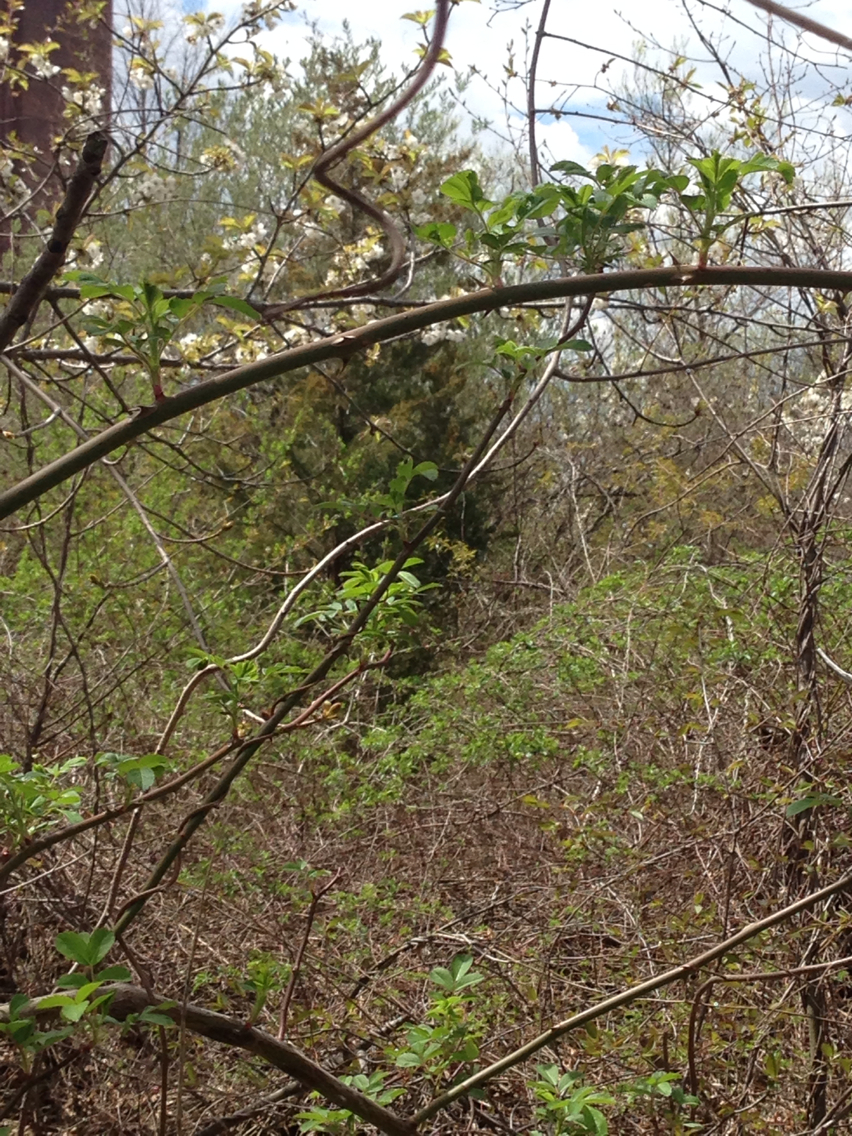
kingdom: Plantae
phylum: Tracheophyta
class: Pinopsida
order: Pinales
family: Cupressaceae
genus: Juniperus
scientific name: Juniperus virginiana
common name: Red juniper
